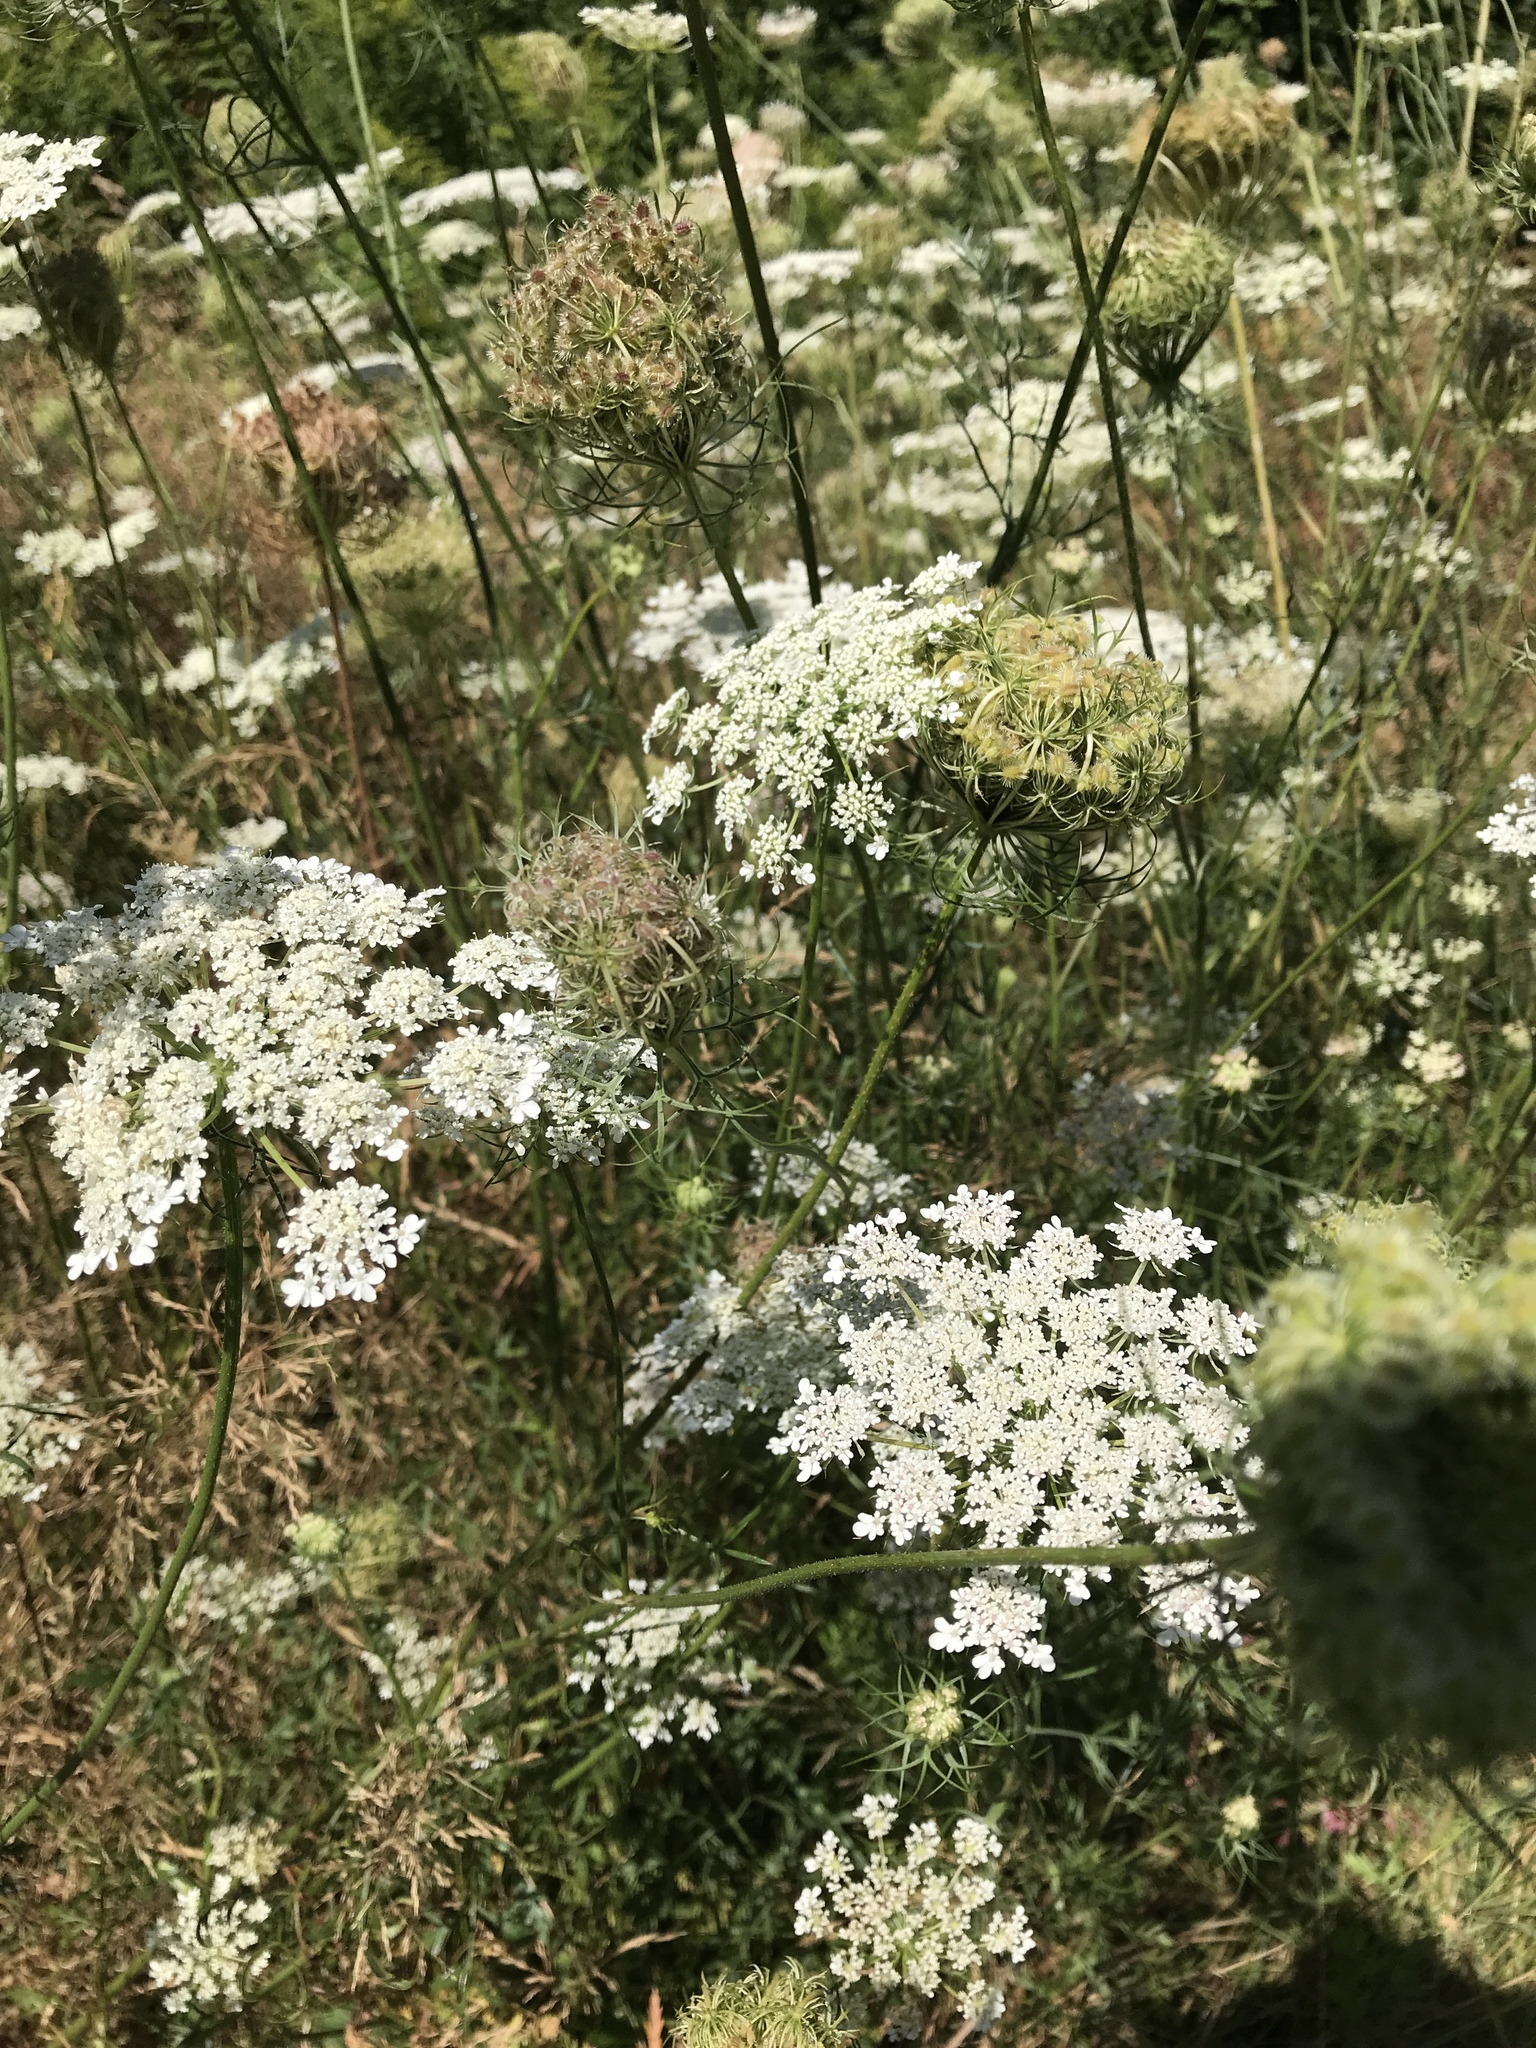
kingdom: Plantae
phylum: Tracheophyta
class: Magnoliopsida
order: Apiales
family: Apiaceae
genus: Daucus
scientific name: Daucus carota
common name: Wild carrot
